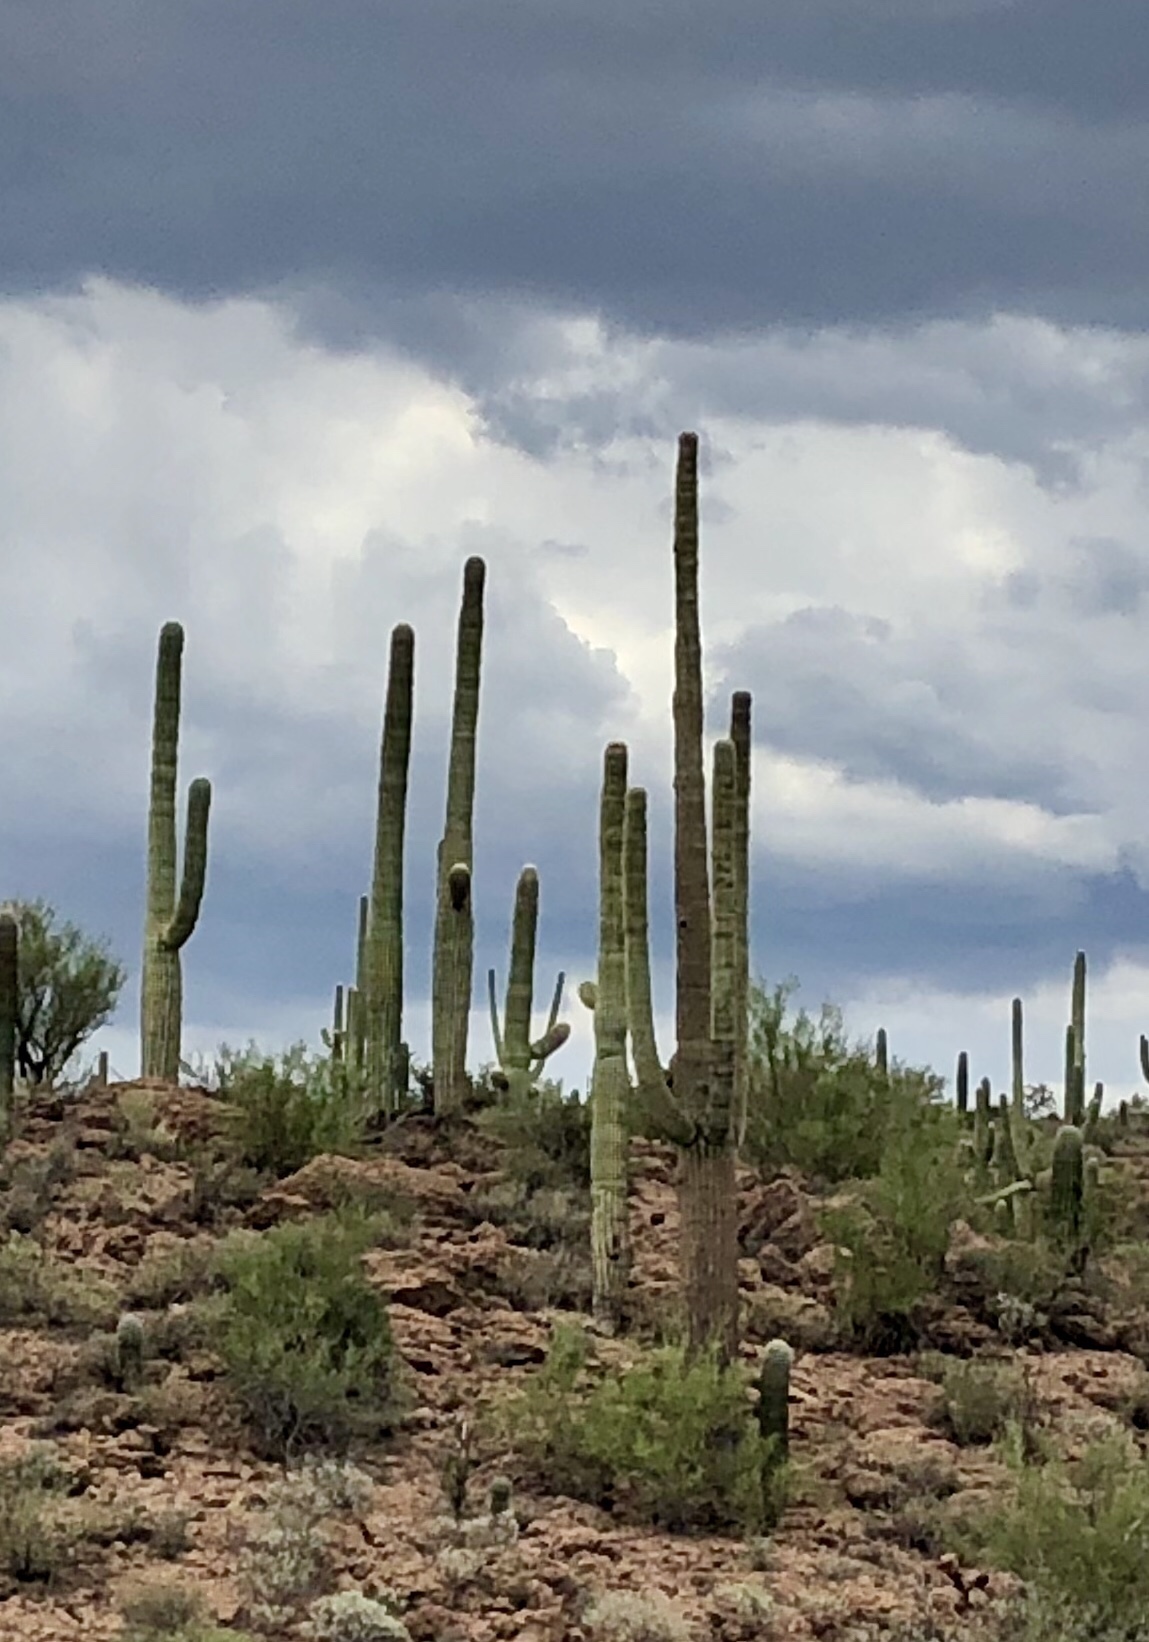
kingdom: Plantae
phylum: Tracheophyta
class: Magnoliopsida
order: Caryophyllales
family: Cactaceae
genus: Carnegiea
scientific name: Carnegiea gigantea
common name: Saguaro
